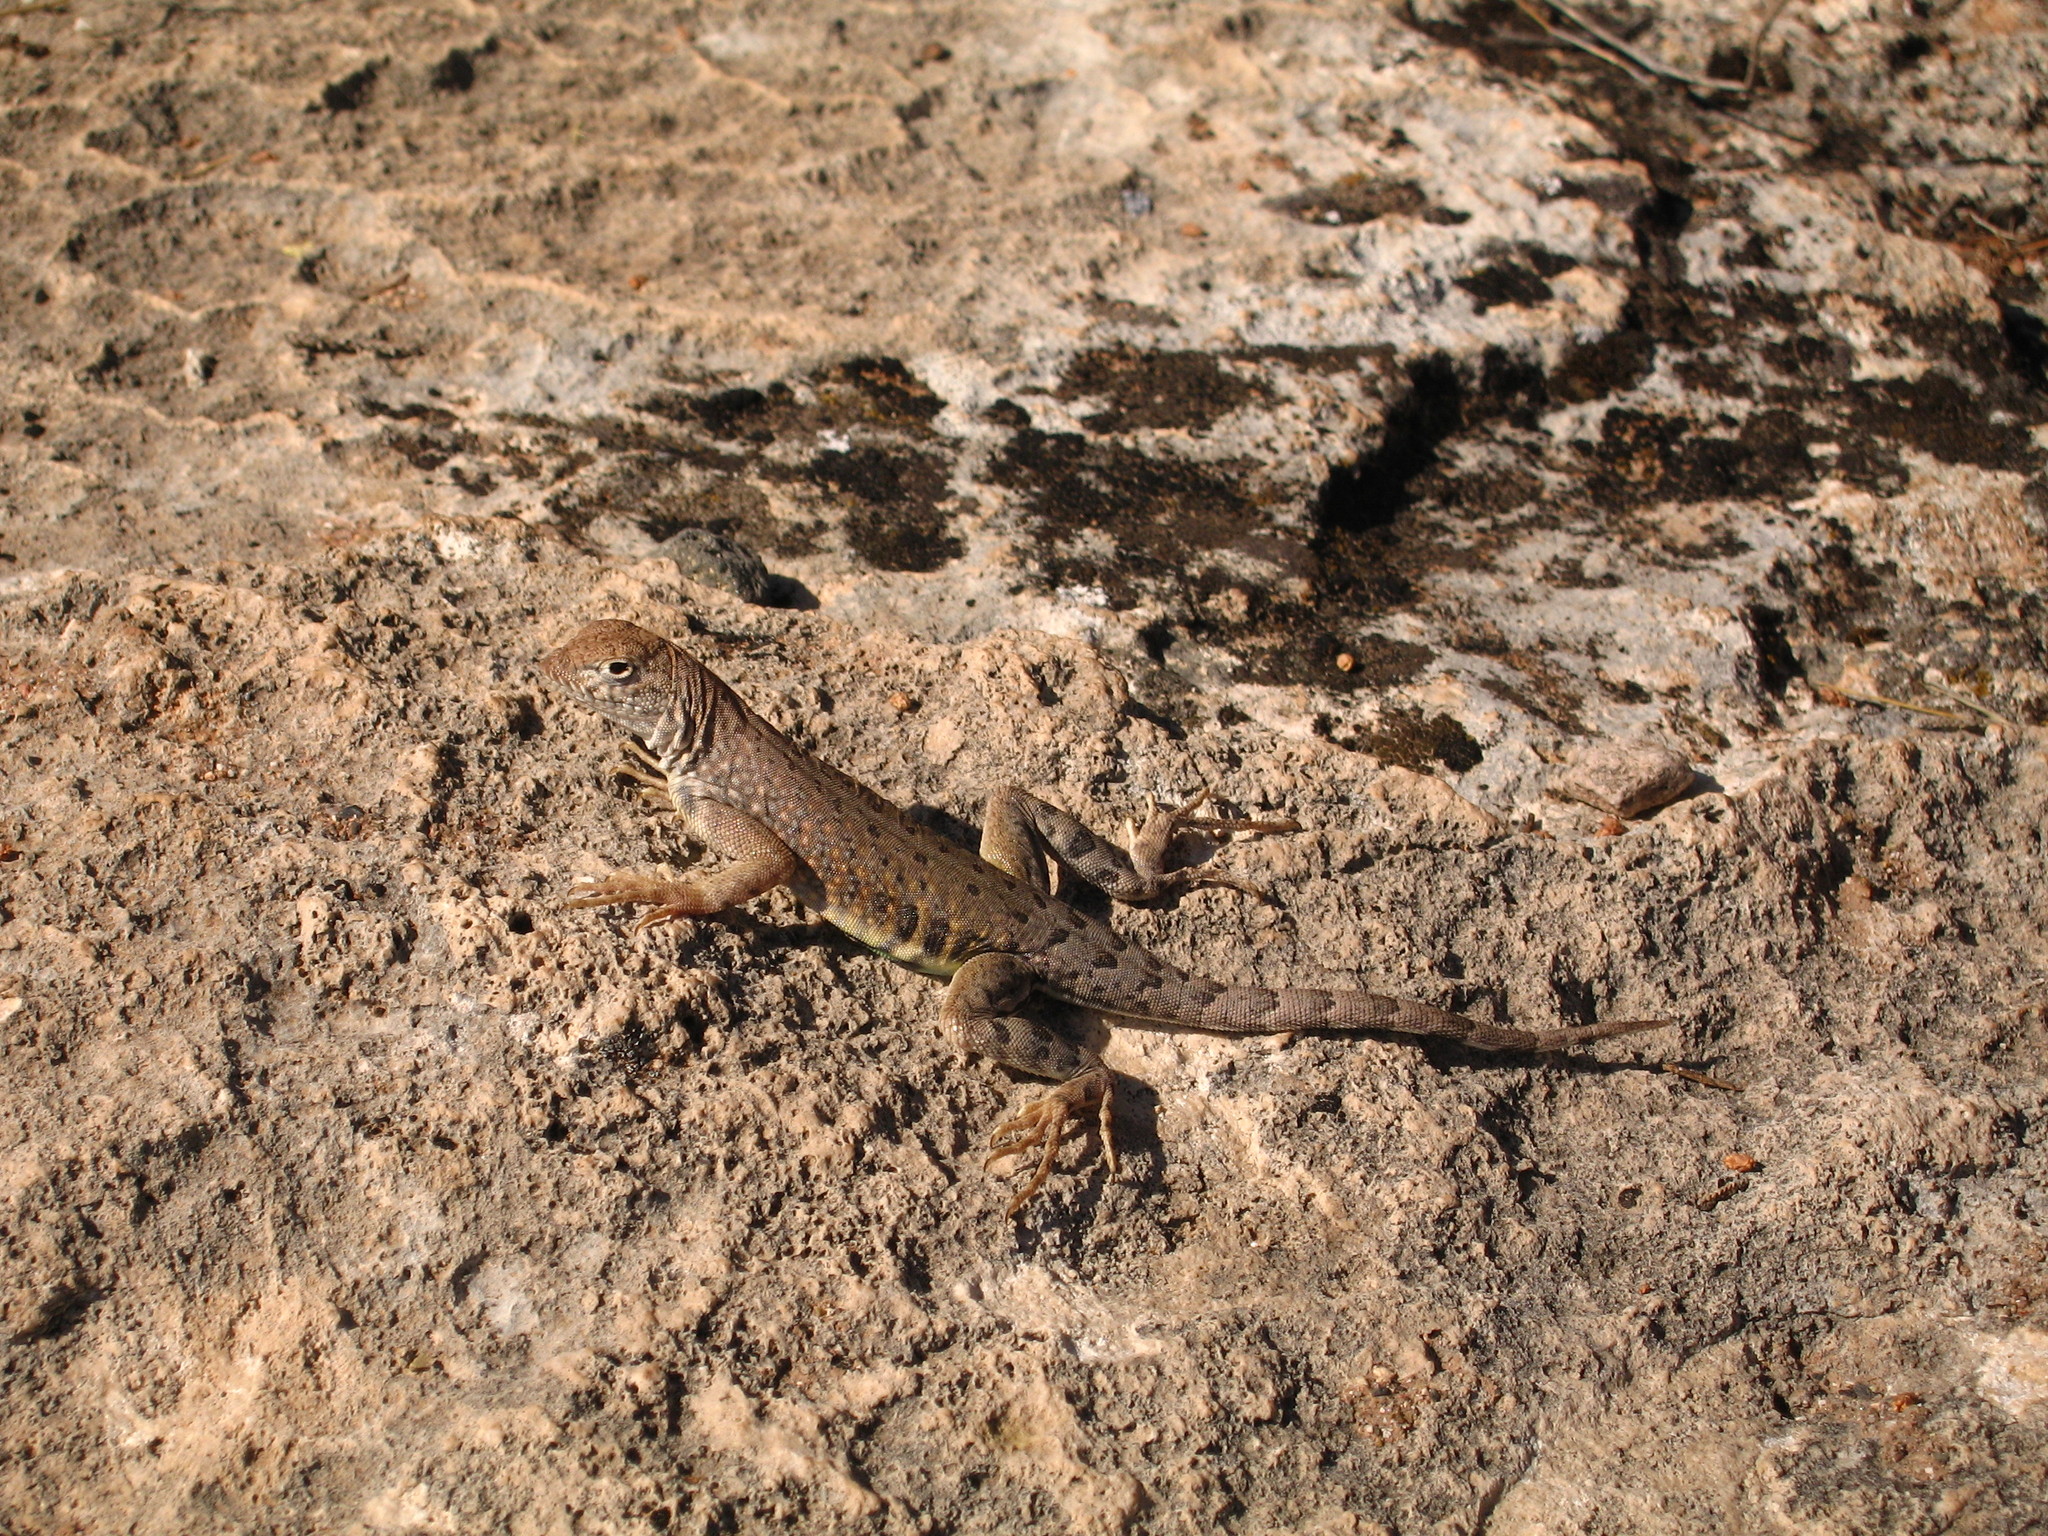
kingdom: Animalia
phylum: Chordata
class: Squamata
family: Phrynosomatidae
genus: Cophosaurus
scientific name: Cophosaurus texanus
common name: Greater earless lizard
